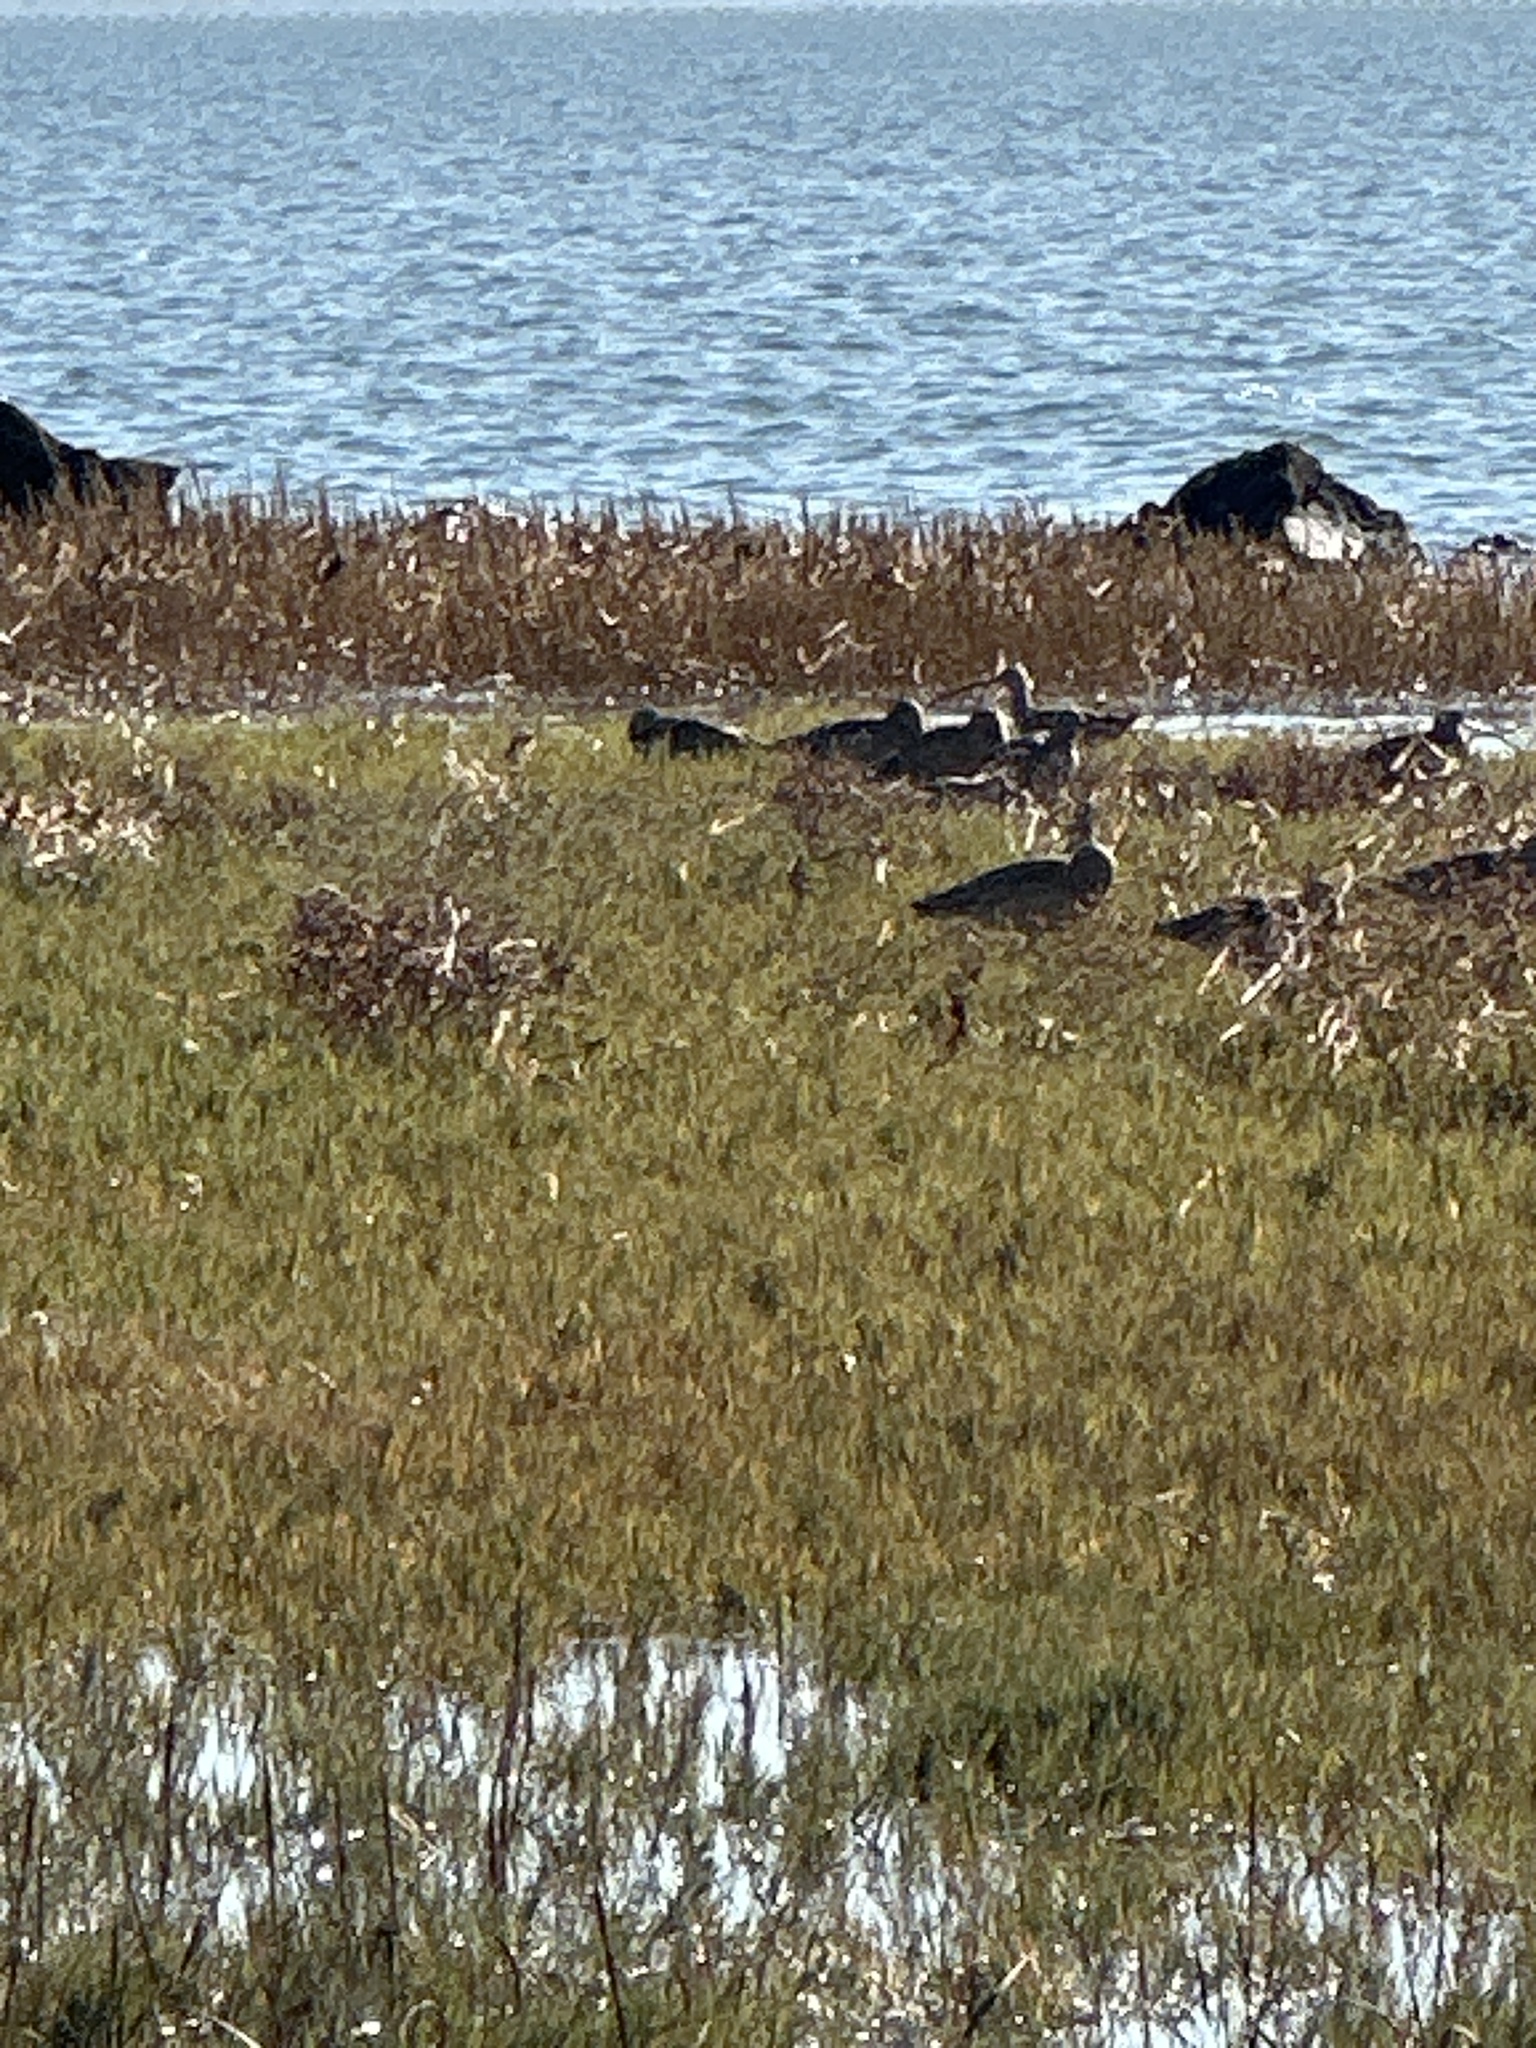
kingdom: Animalia
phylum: Chordata
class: Aves
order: Charadriiformes
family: Scolopacidae
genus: Numenius
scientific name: Numenius americanus
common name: Long-billed curlew
